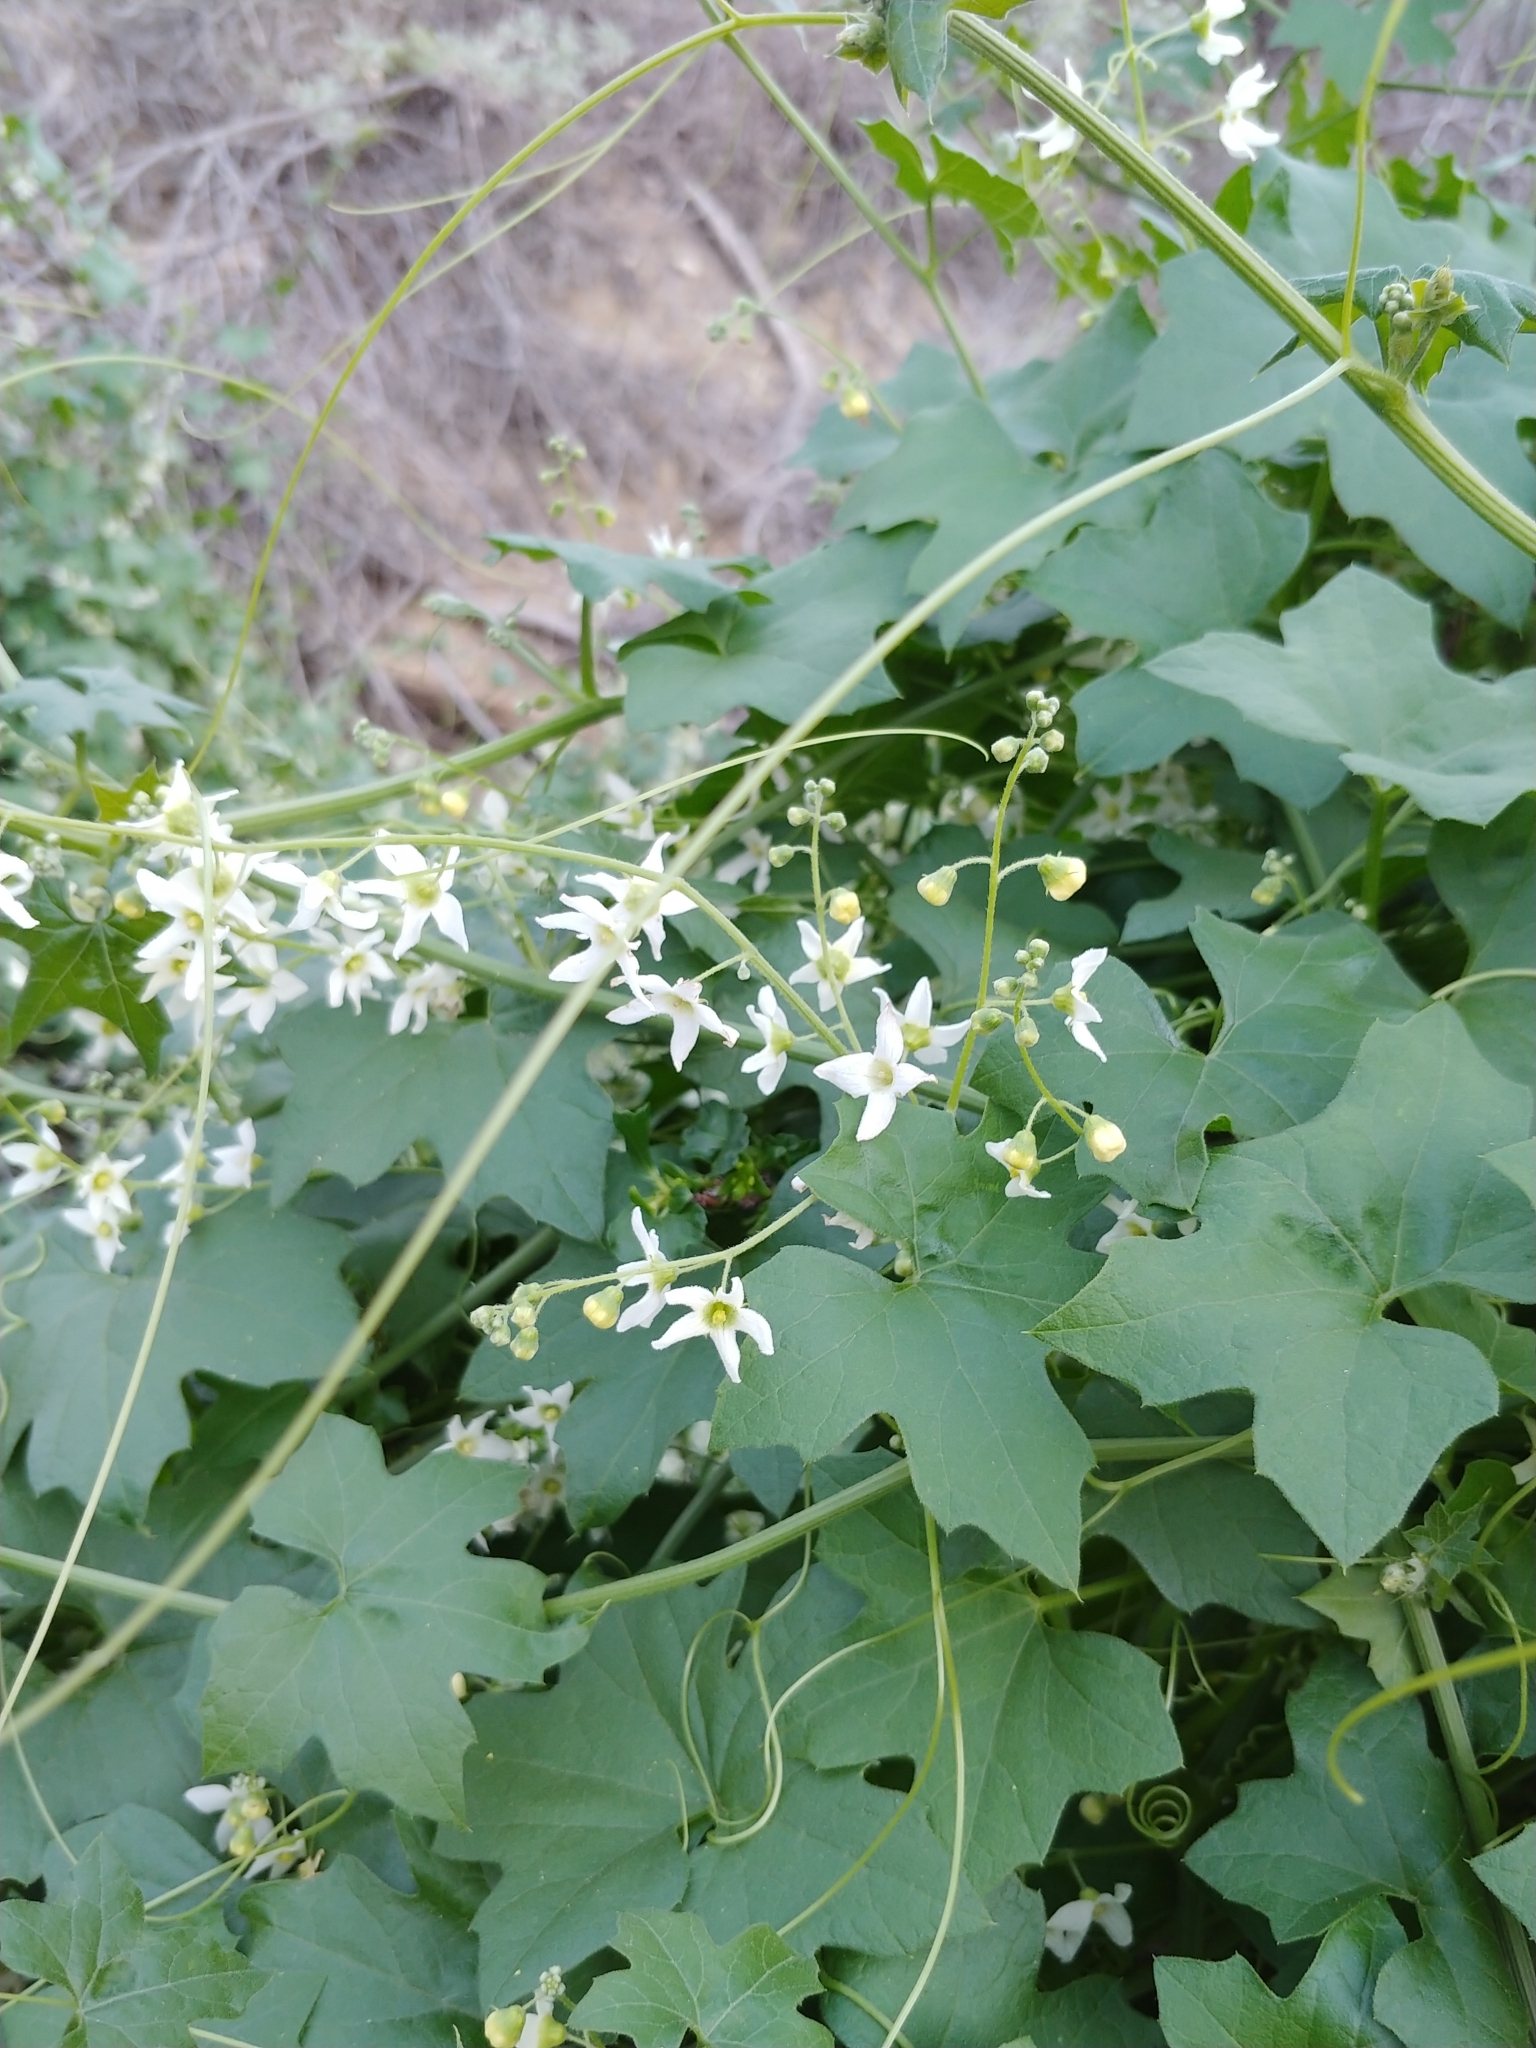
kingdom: Plantae
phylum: Tracheophyta
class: Magnoliopsida
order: Cucurbitales
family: Cucurbitaceae
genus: Marah
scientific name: Marah macrocarpa
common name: Cucamonga manroot
